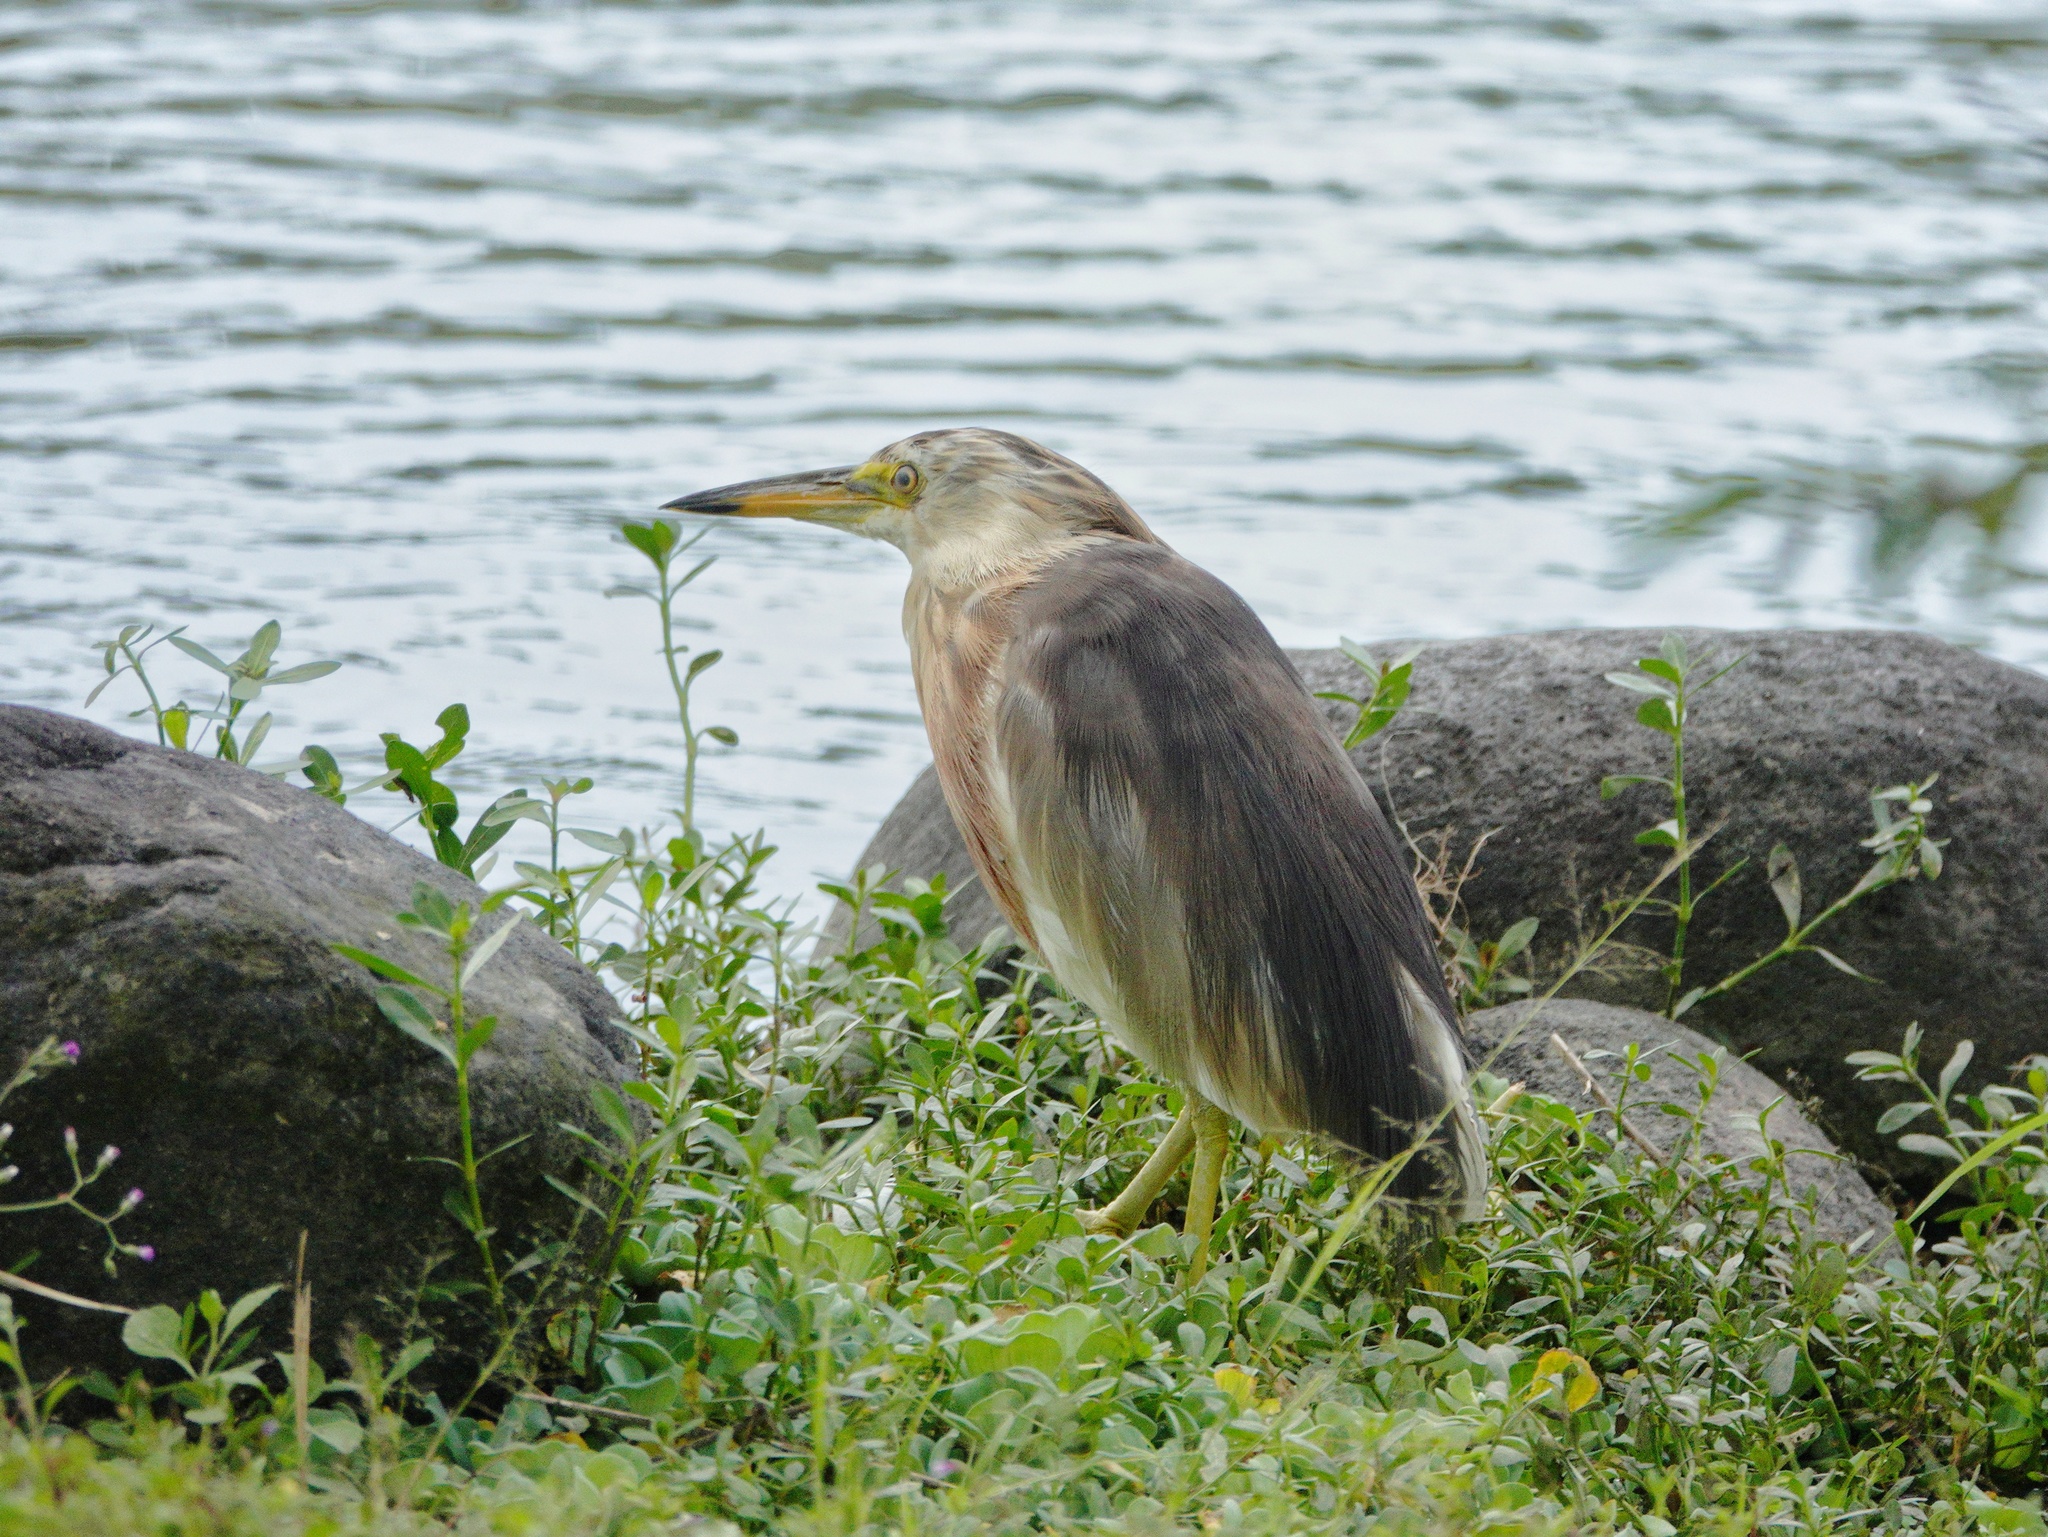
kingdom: Animalia
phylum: Chordata
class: Aves
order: Pelecaniformes
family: Ardeidae
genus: Ardeola
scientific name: Ardeola speciosa
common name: Javan pond heron
